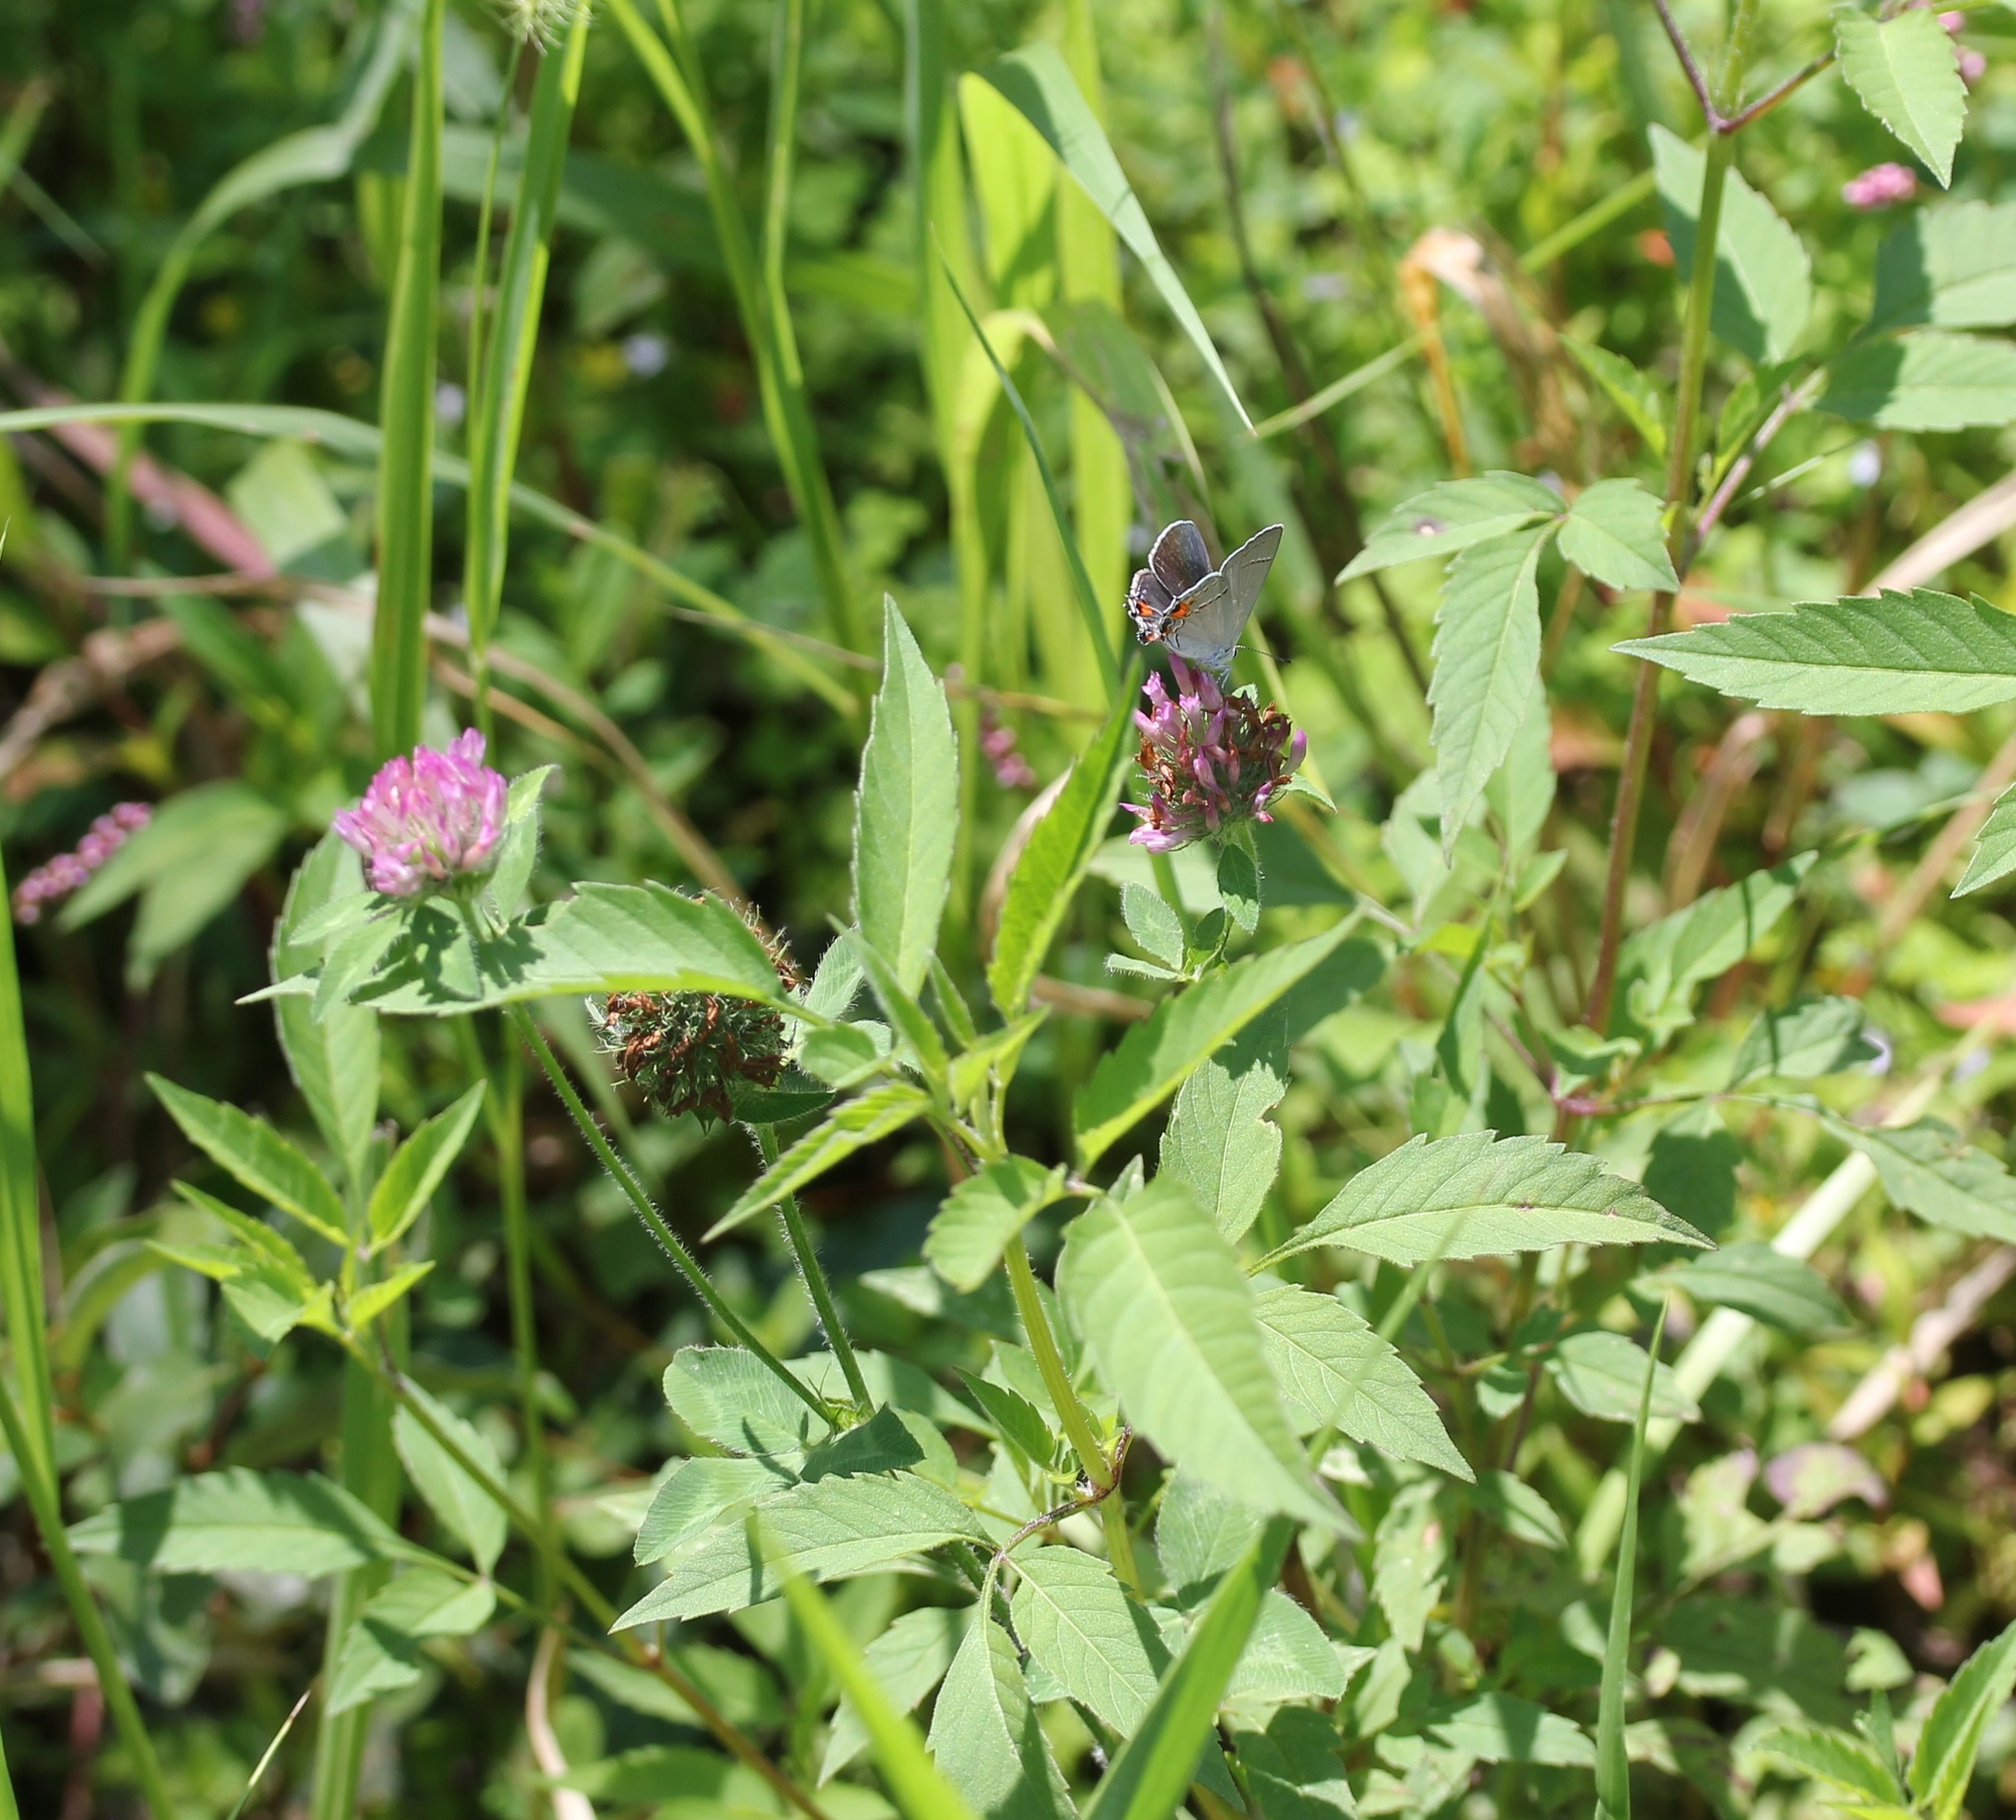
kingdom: Plantae
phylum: Tracheophyta
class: Magnoliopsida
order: Fabales
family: Fabaceae
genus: Trifolium
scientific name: Trifolium pratense
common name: Red clover
